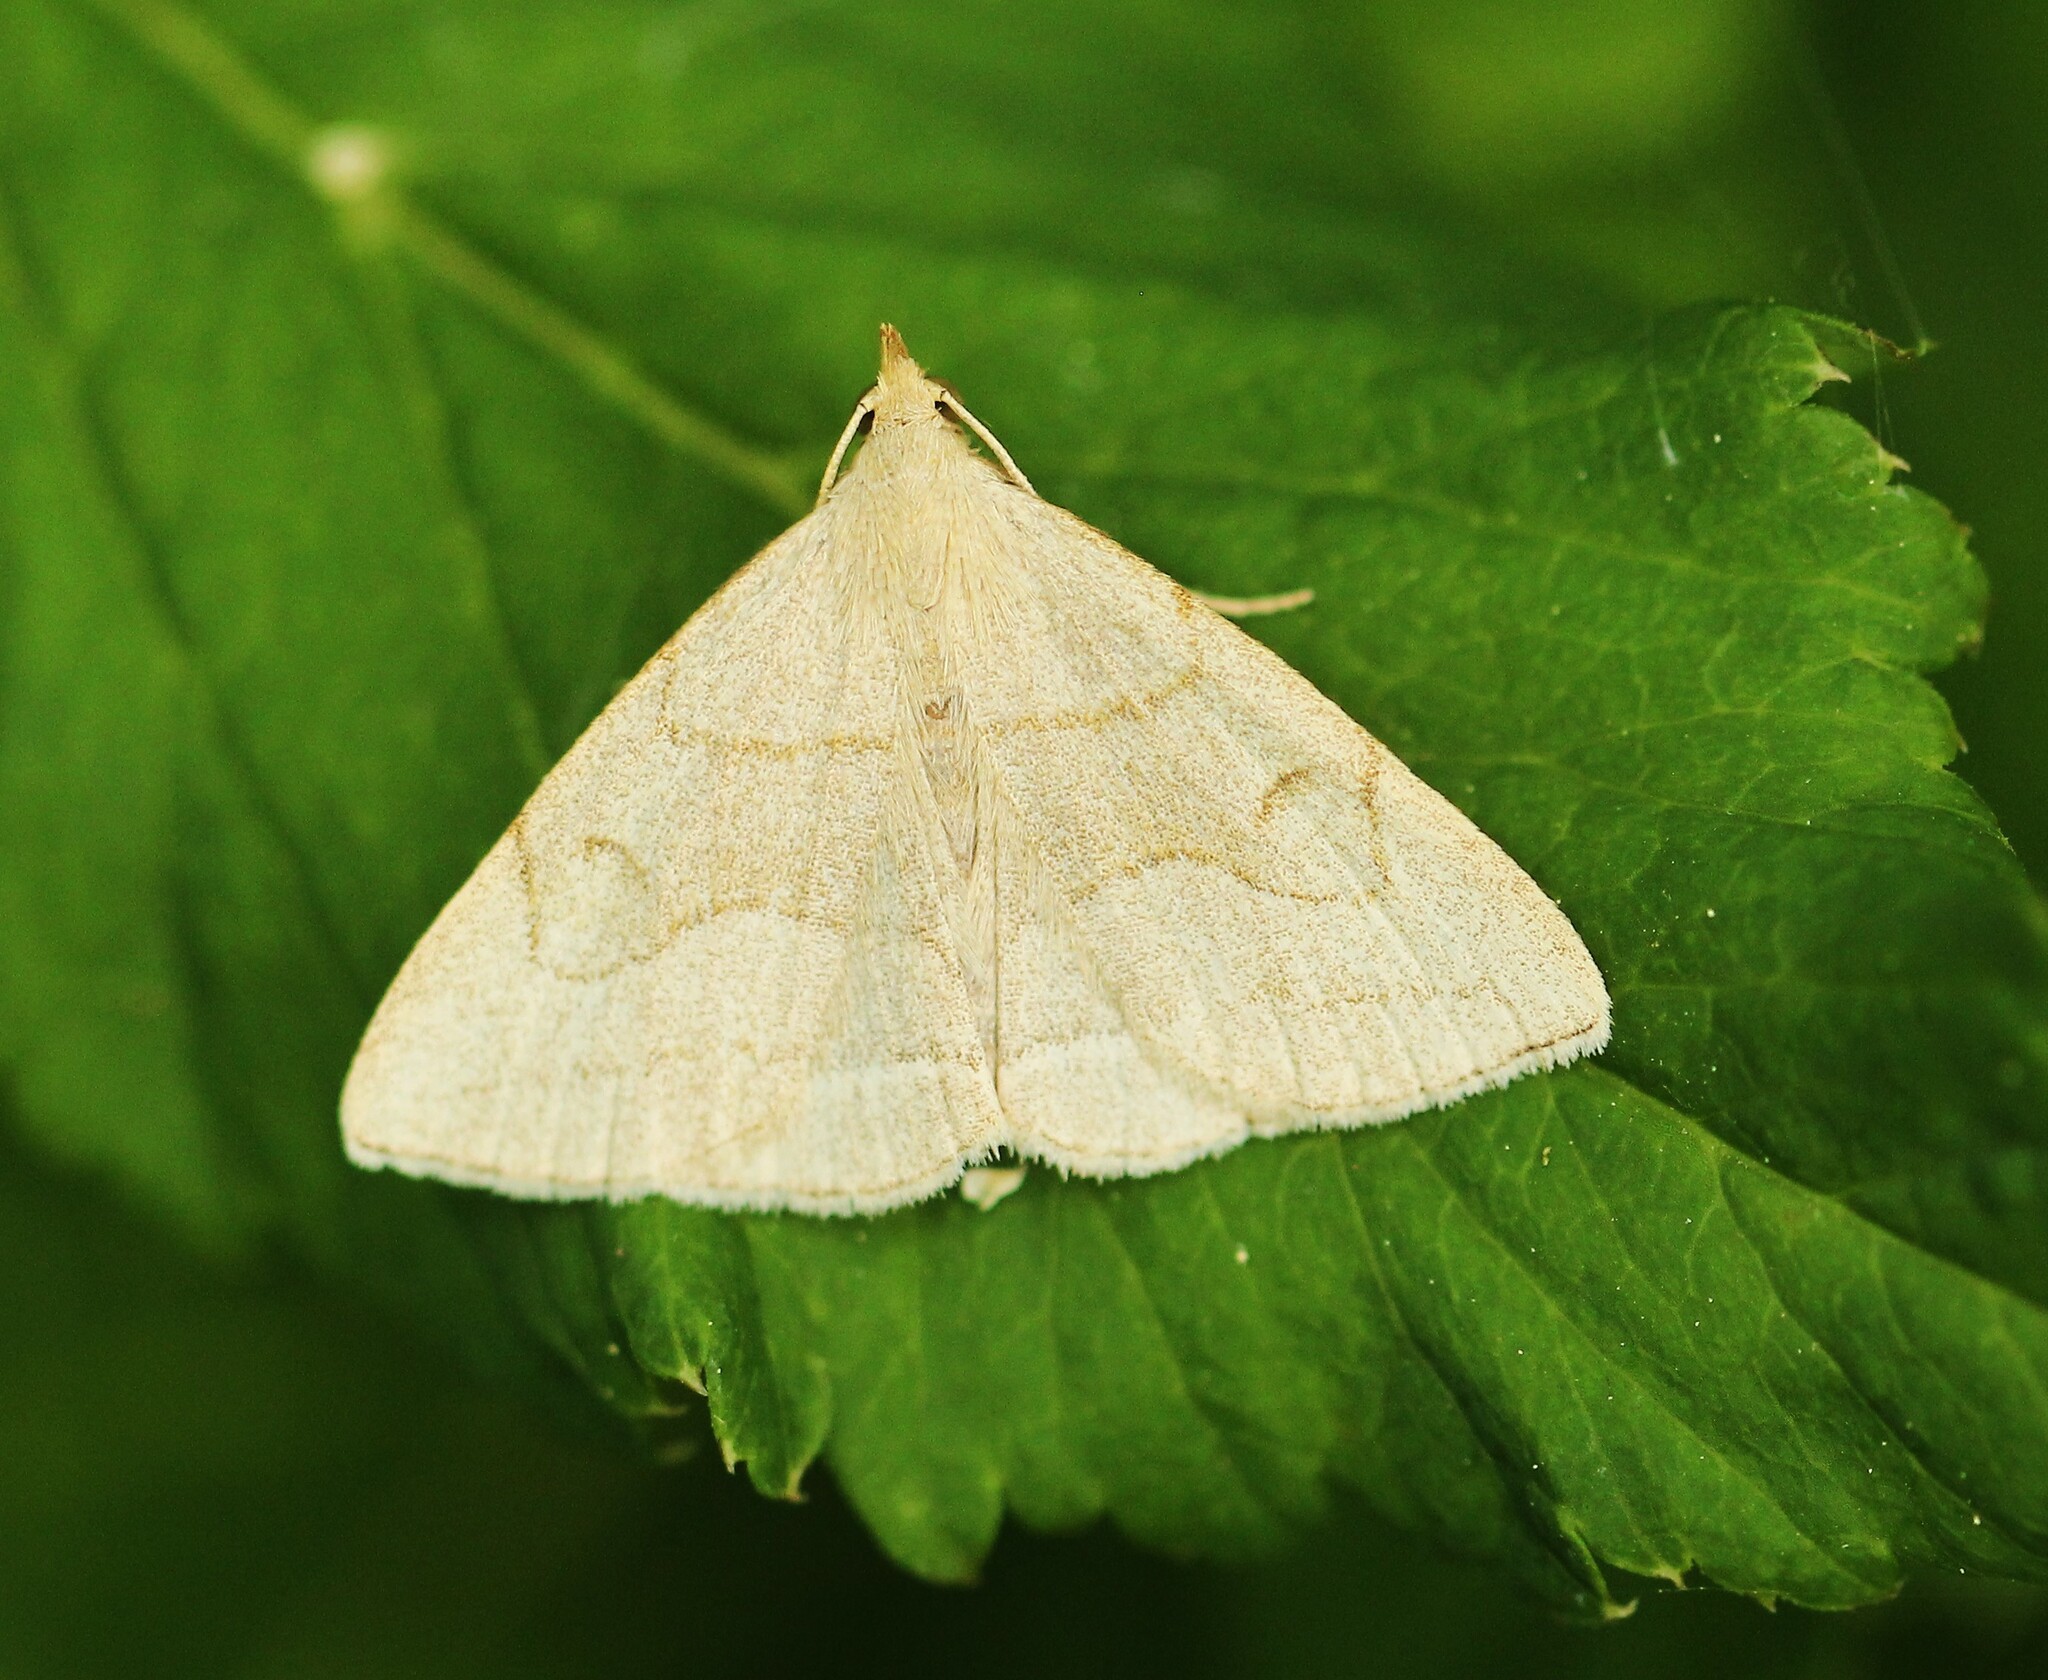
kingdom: Animalia
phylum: Arthropoda
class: Insecta
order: Lepidoptera
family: Erebidae
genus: Zanclognatha
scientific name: Zanclognatha pedipilalis
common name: Grayish fan-foot
